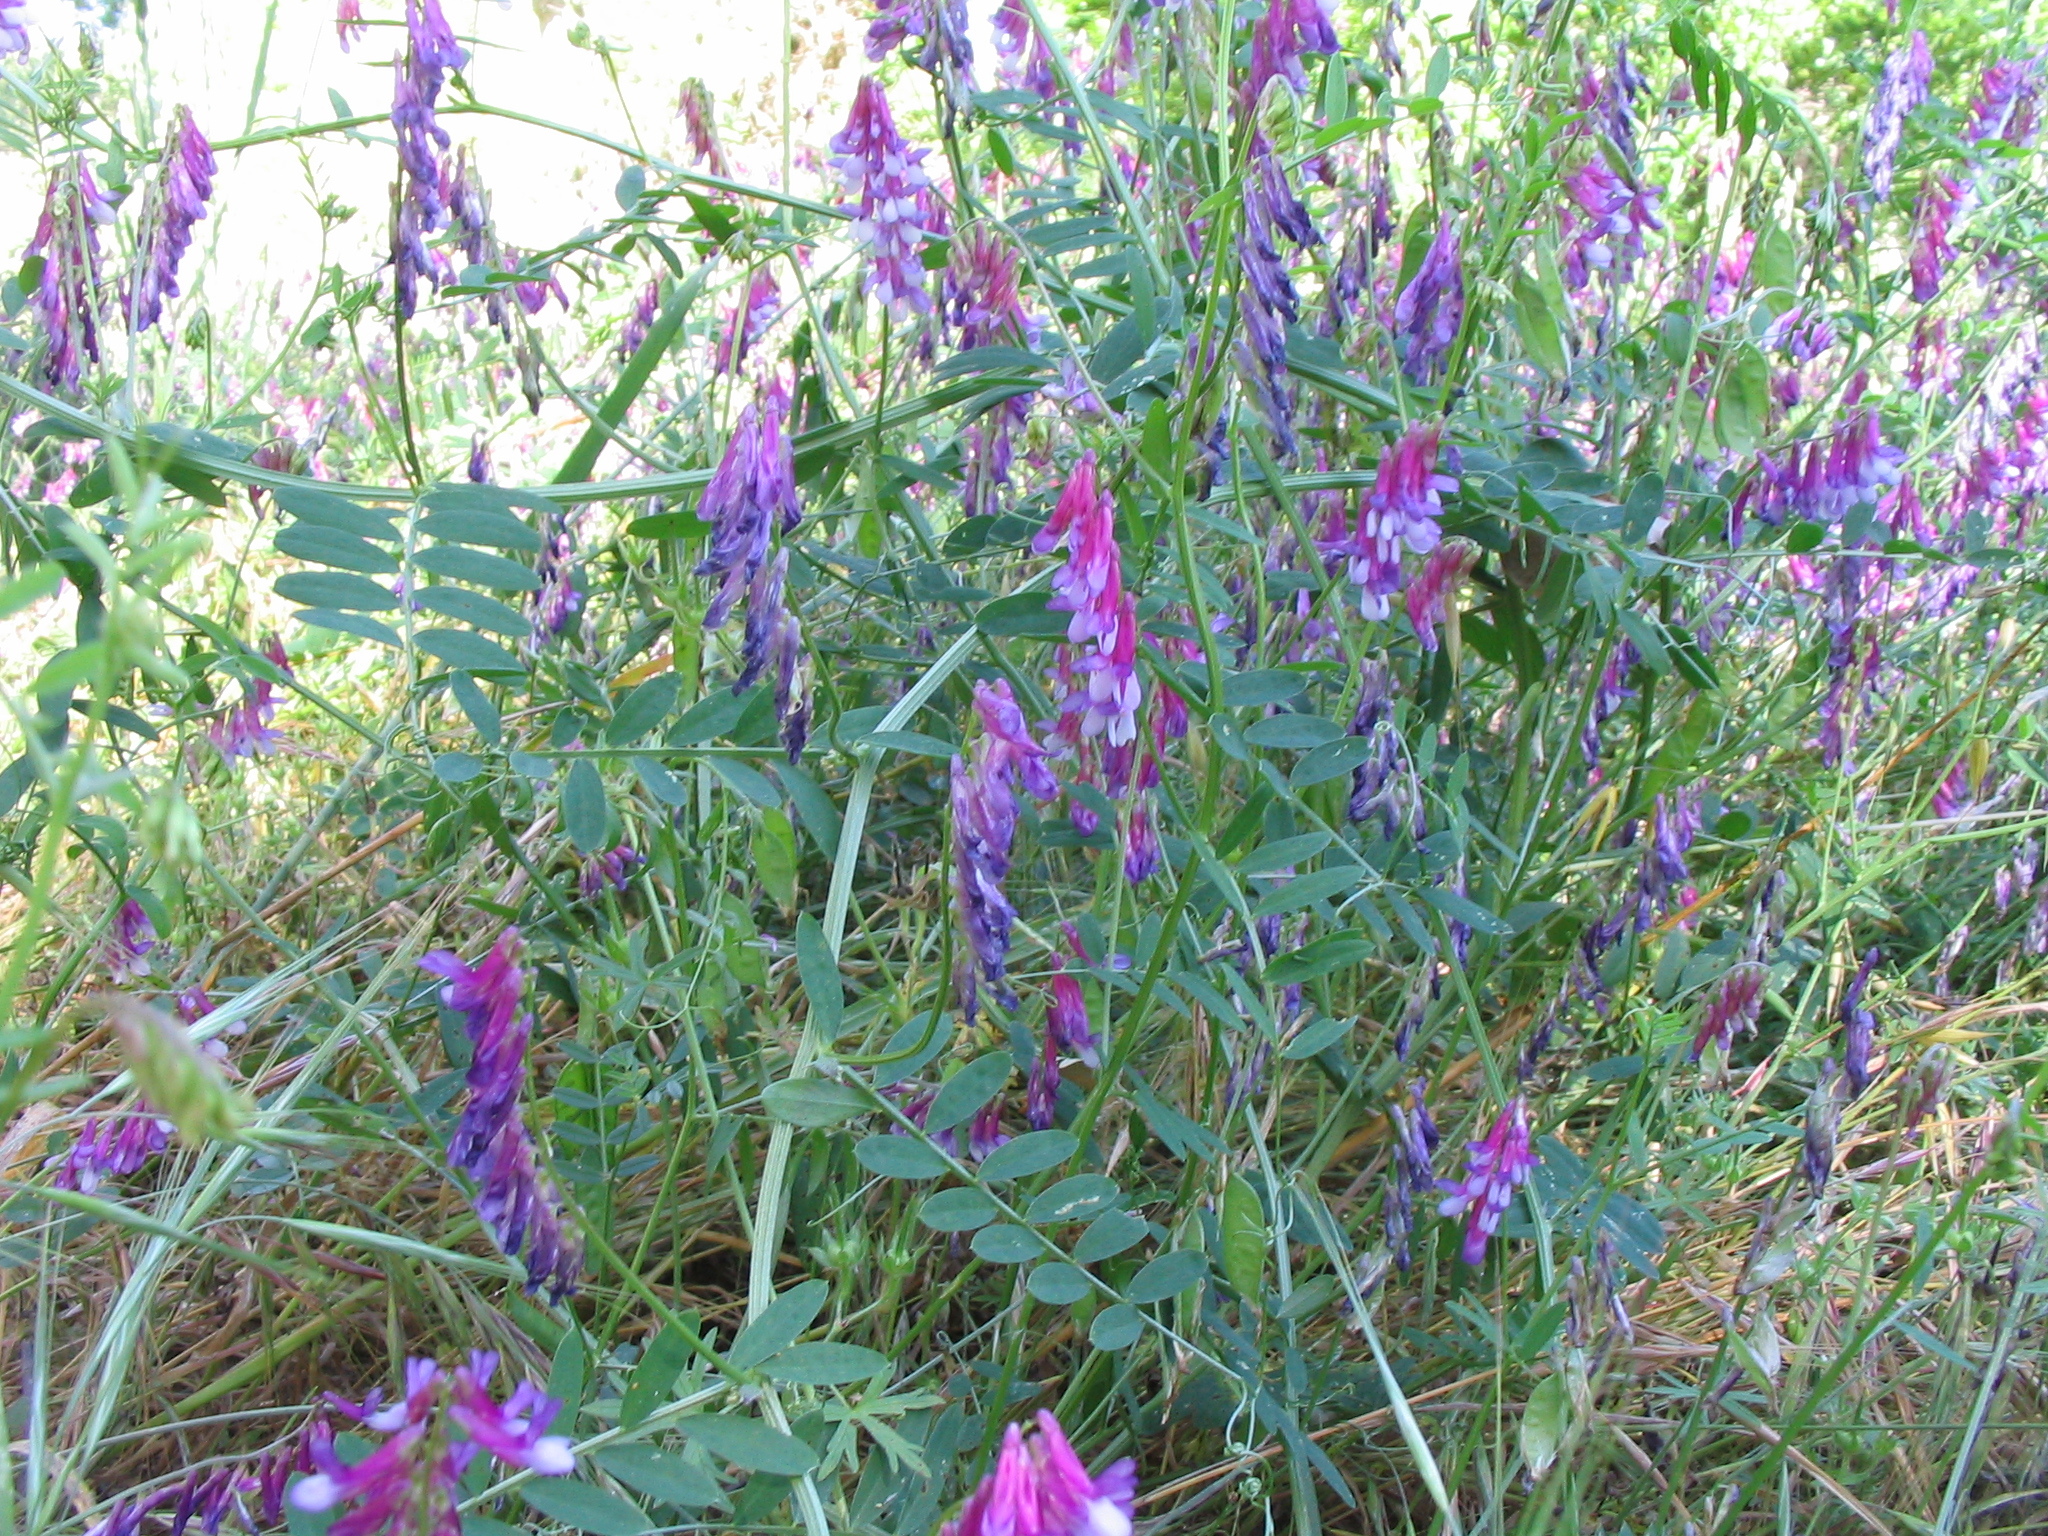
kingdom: Plantae
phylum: Tracheophyta
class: Magnoliopsida
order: Fabales
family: Fabaceae
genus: Vicia
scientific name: Vicia villosa
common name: Fodder vetch
